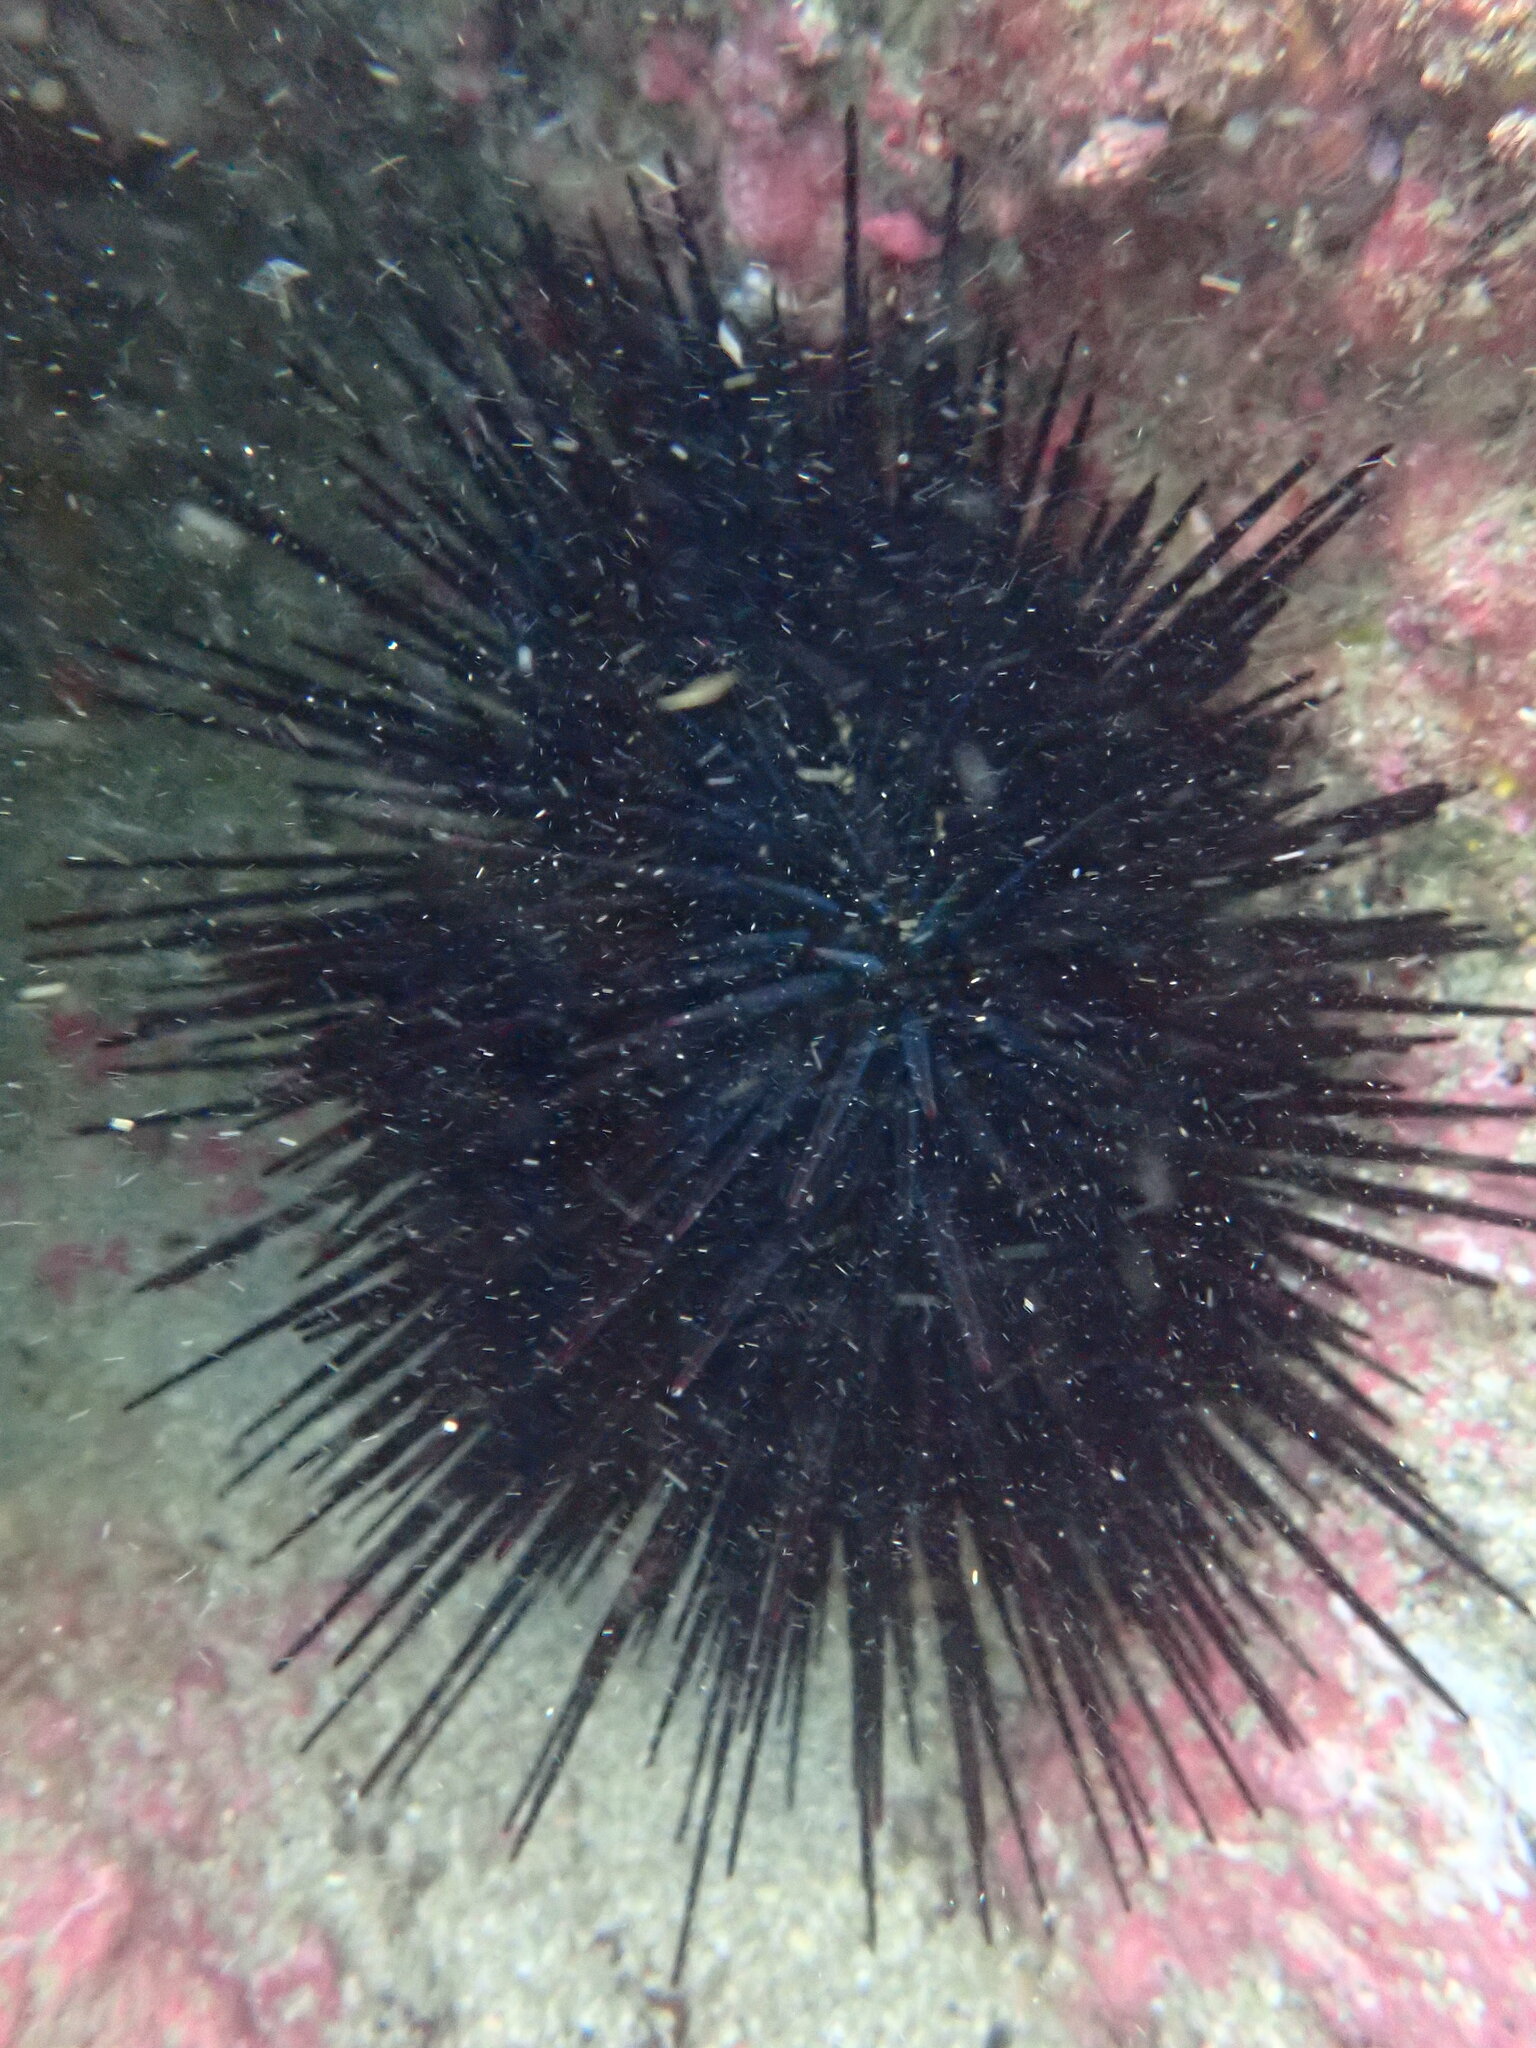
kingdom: Animalia
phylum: Echinodermata
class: Echinoidea
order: Diadematoida
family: Diadematidae
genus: Centrostephanus
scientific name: Centrostephanus rodgersii
